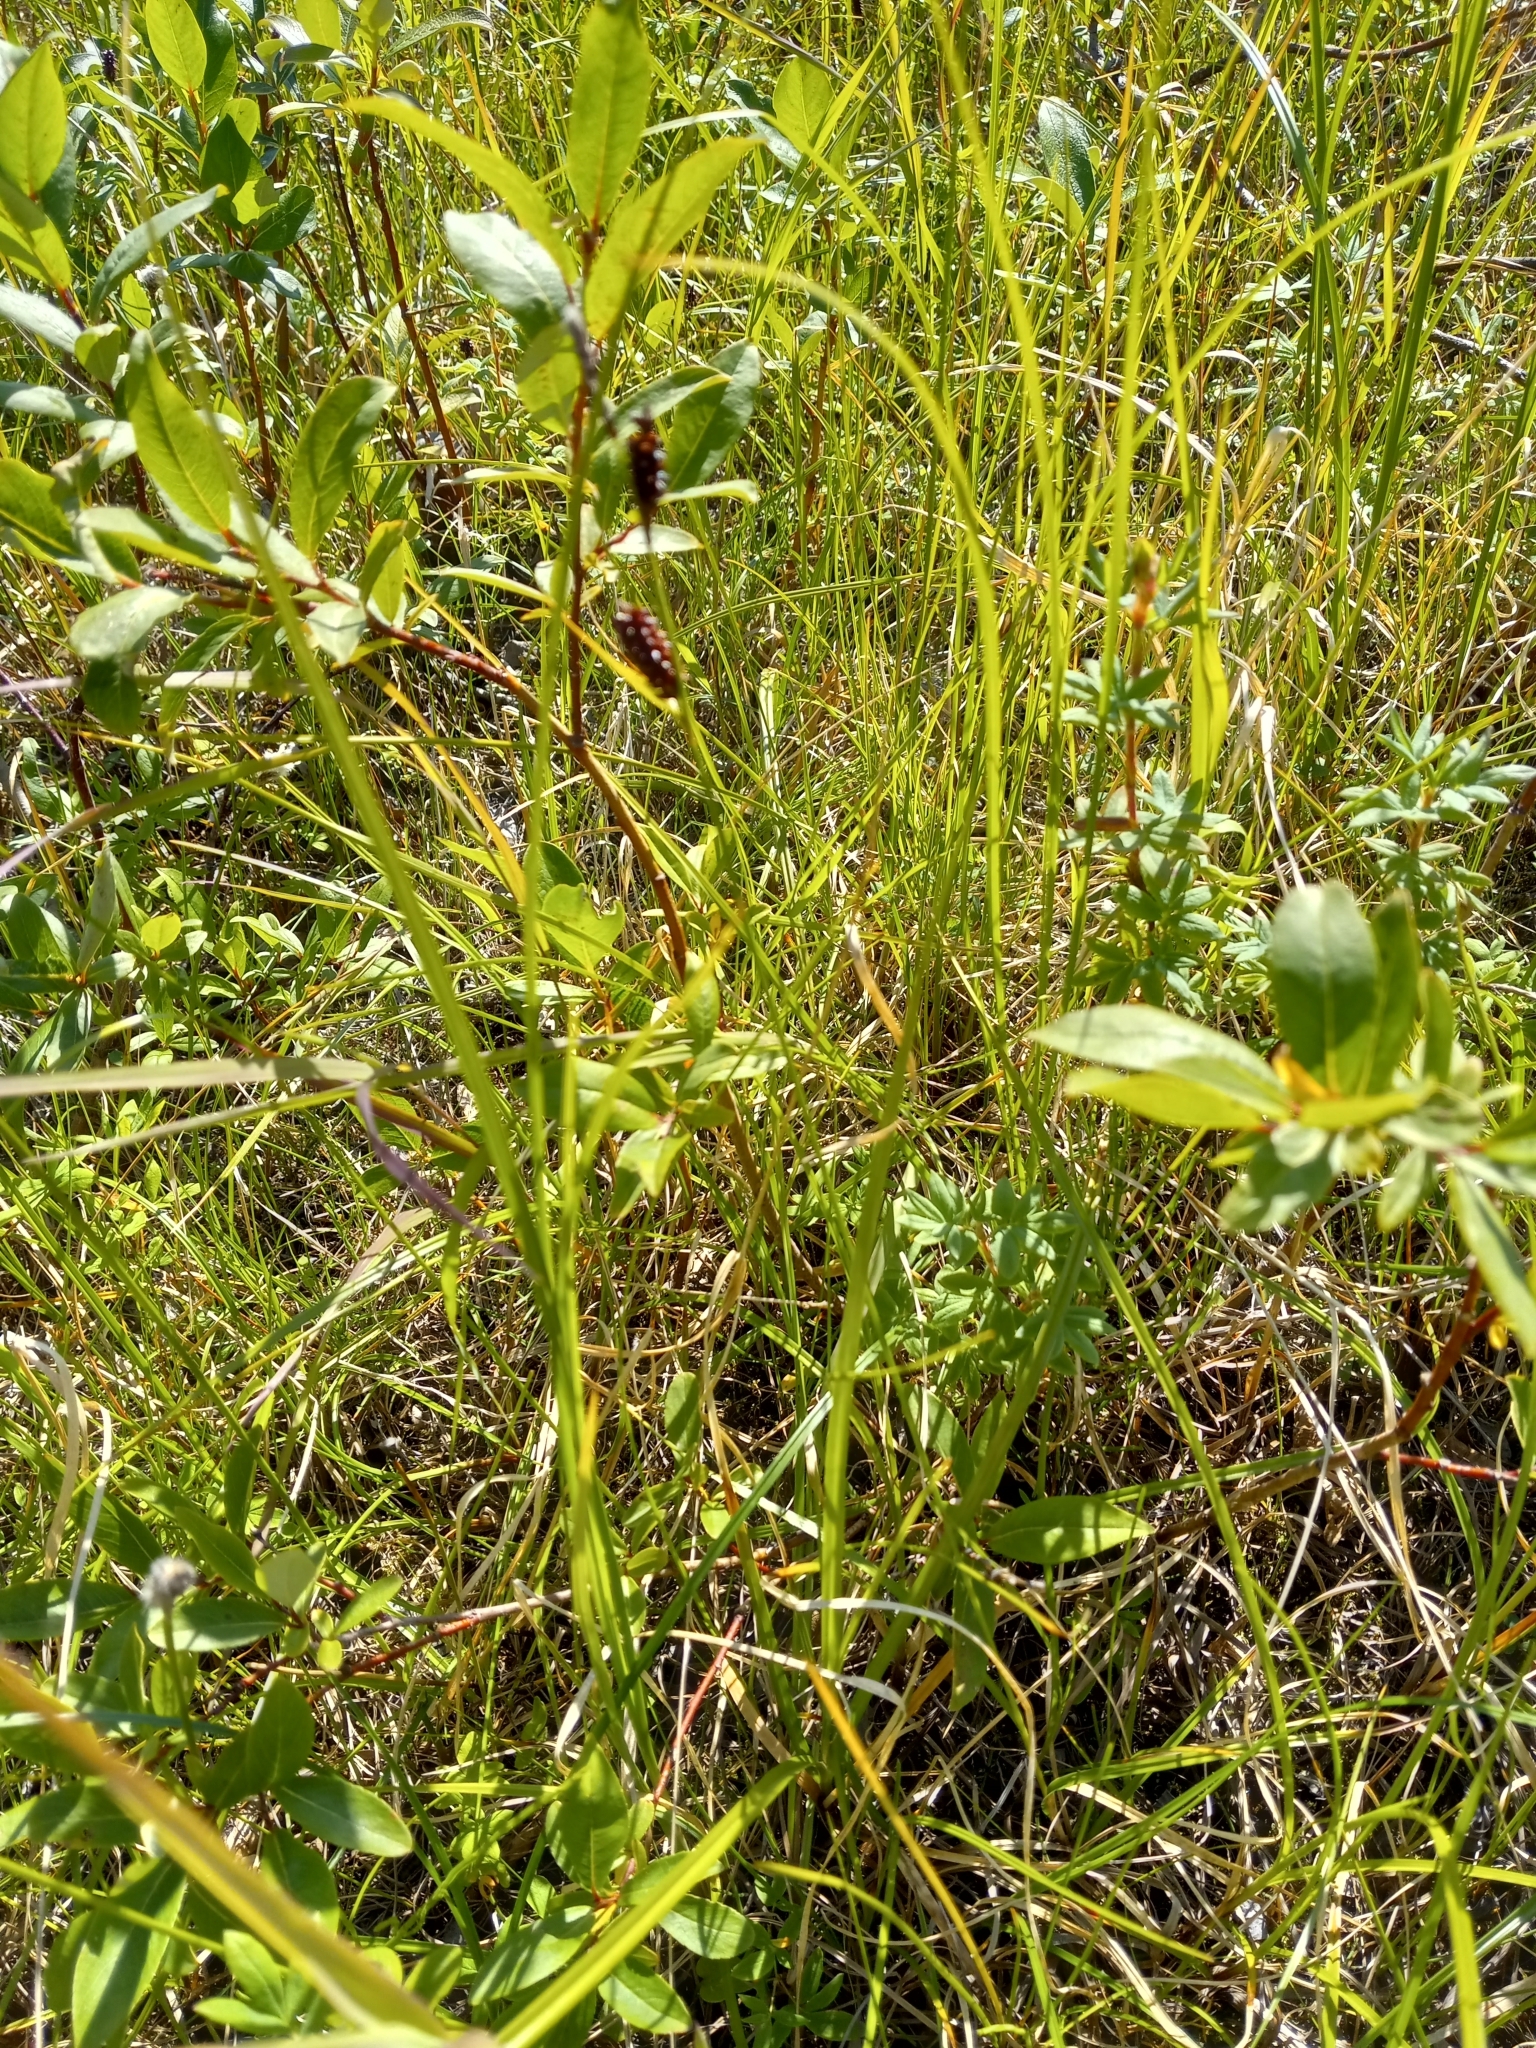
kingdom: Plantae
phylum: Tracheophyta
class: Liliopsida
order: Poales
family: Cyperaceae
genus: Carex
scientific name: Carex membranacea
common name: Fragile sedge
